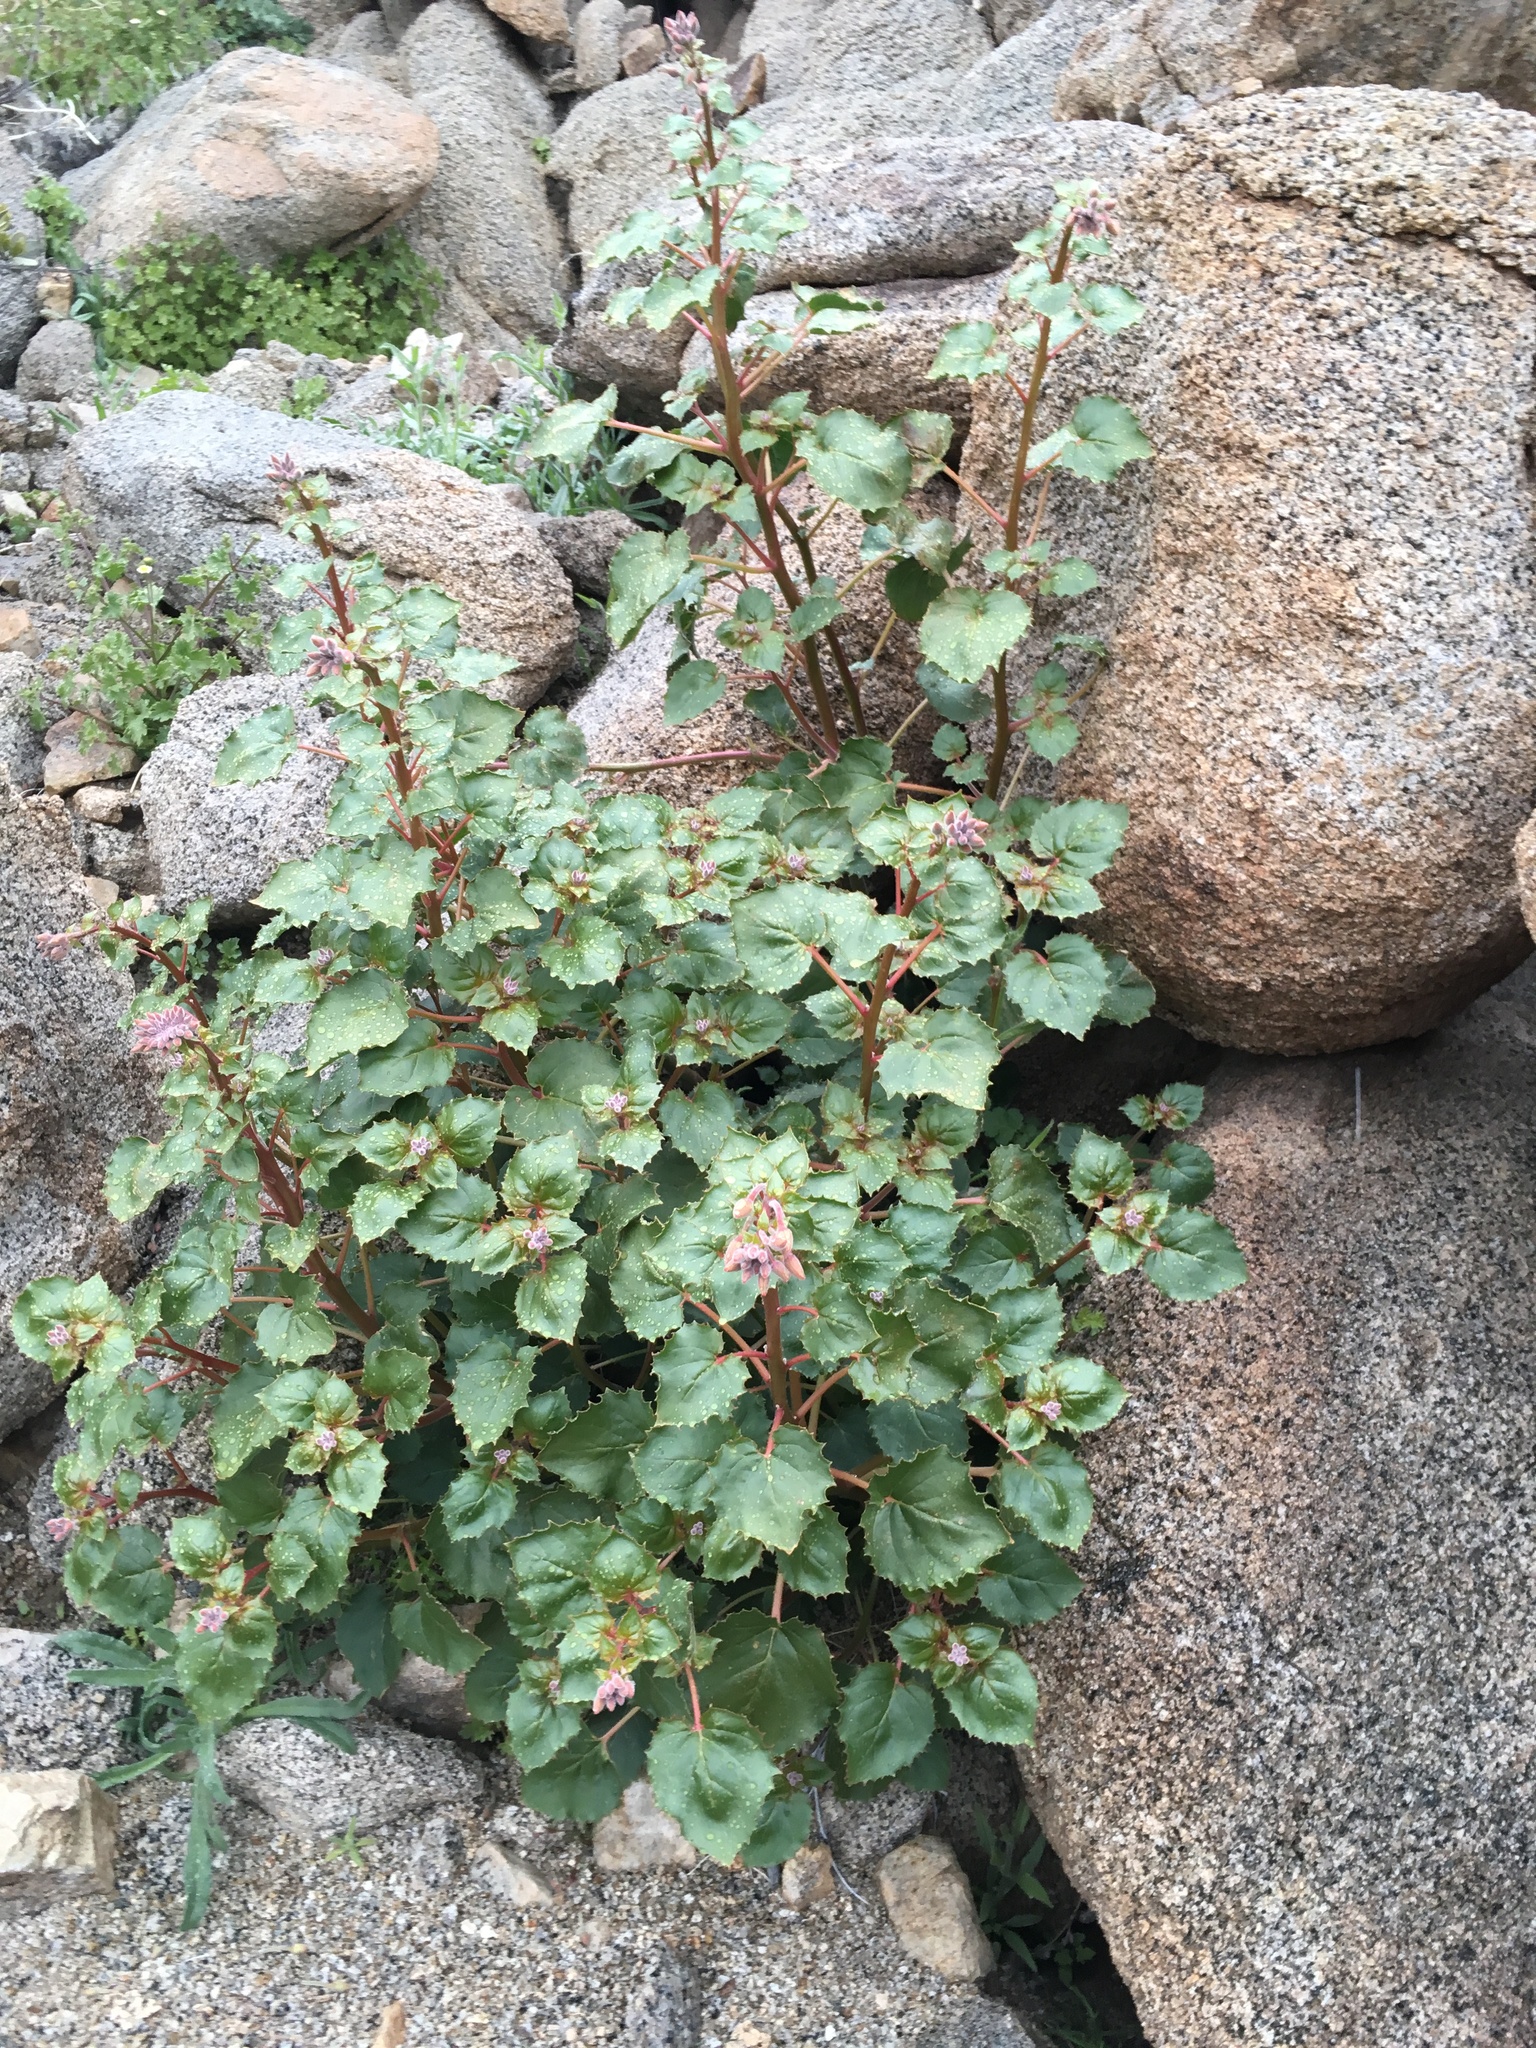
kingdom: Plantae
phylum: Tracheophyta
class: Magnoliopsida
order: Myrtales
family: Onagraceae
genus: Chylismia
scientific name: Chylismia cardiophylla
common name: Heartleaf suncup
